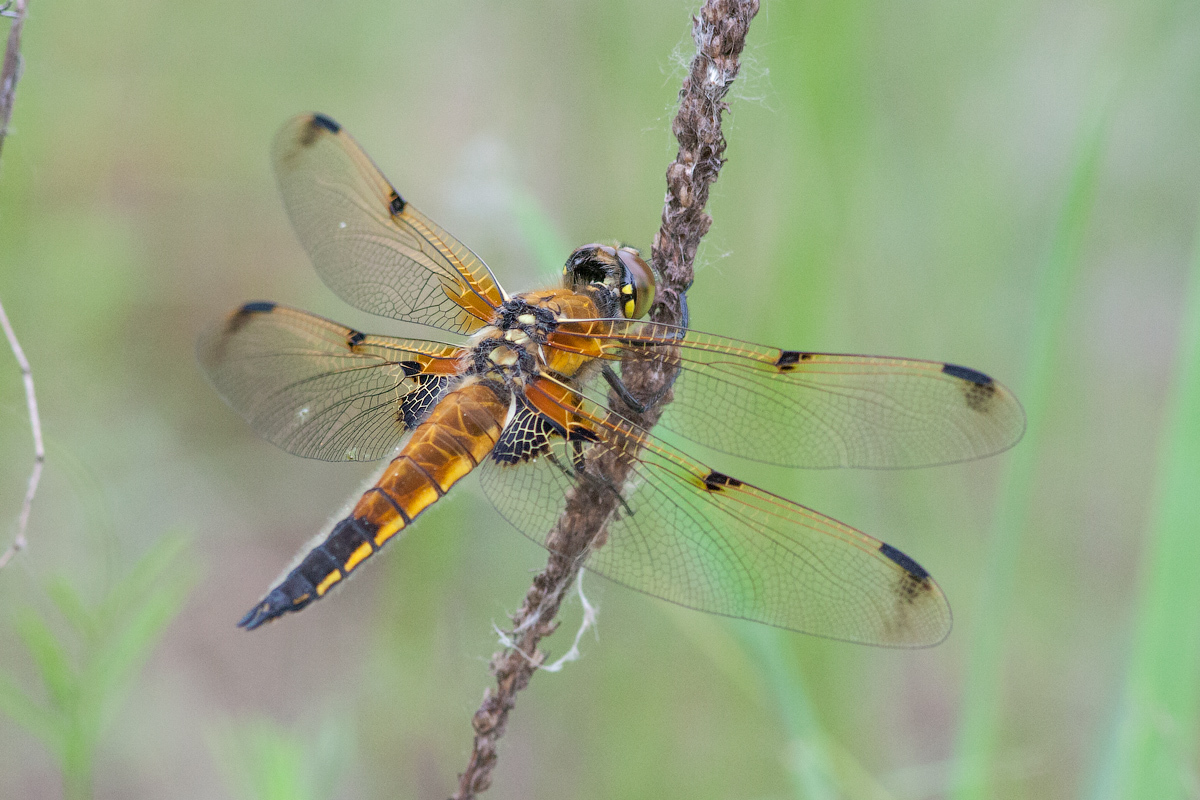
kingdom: Animalia
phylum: Arthropoda
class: Insecta
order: Odonata
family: Libellulidae
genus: Libellula
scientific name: Libellula quadrimaculata
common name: Four-spotted chaser
